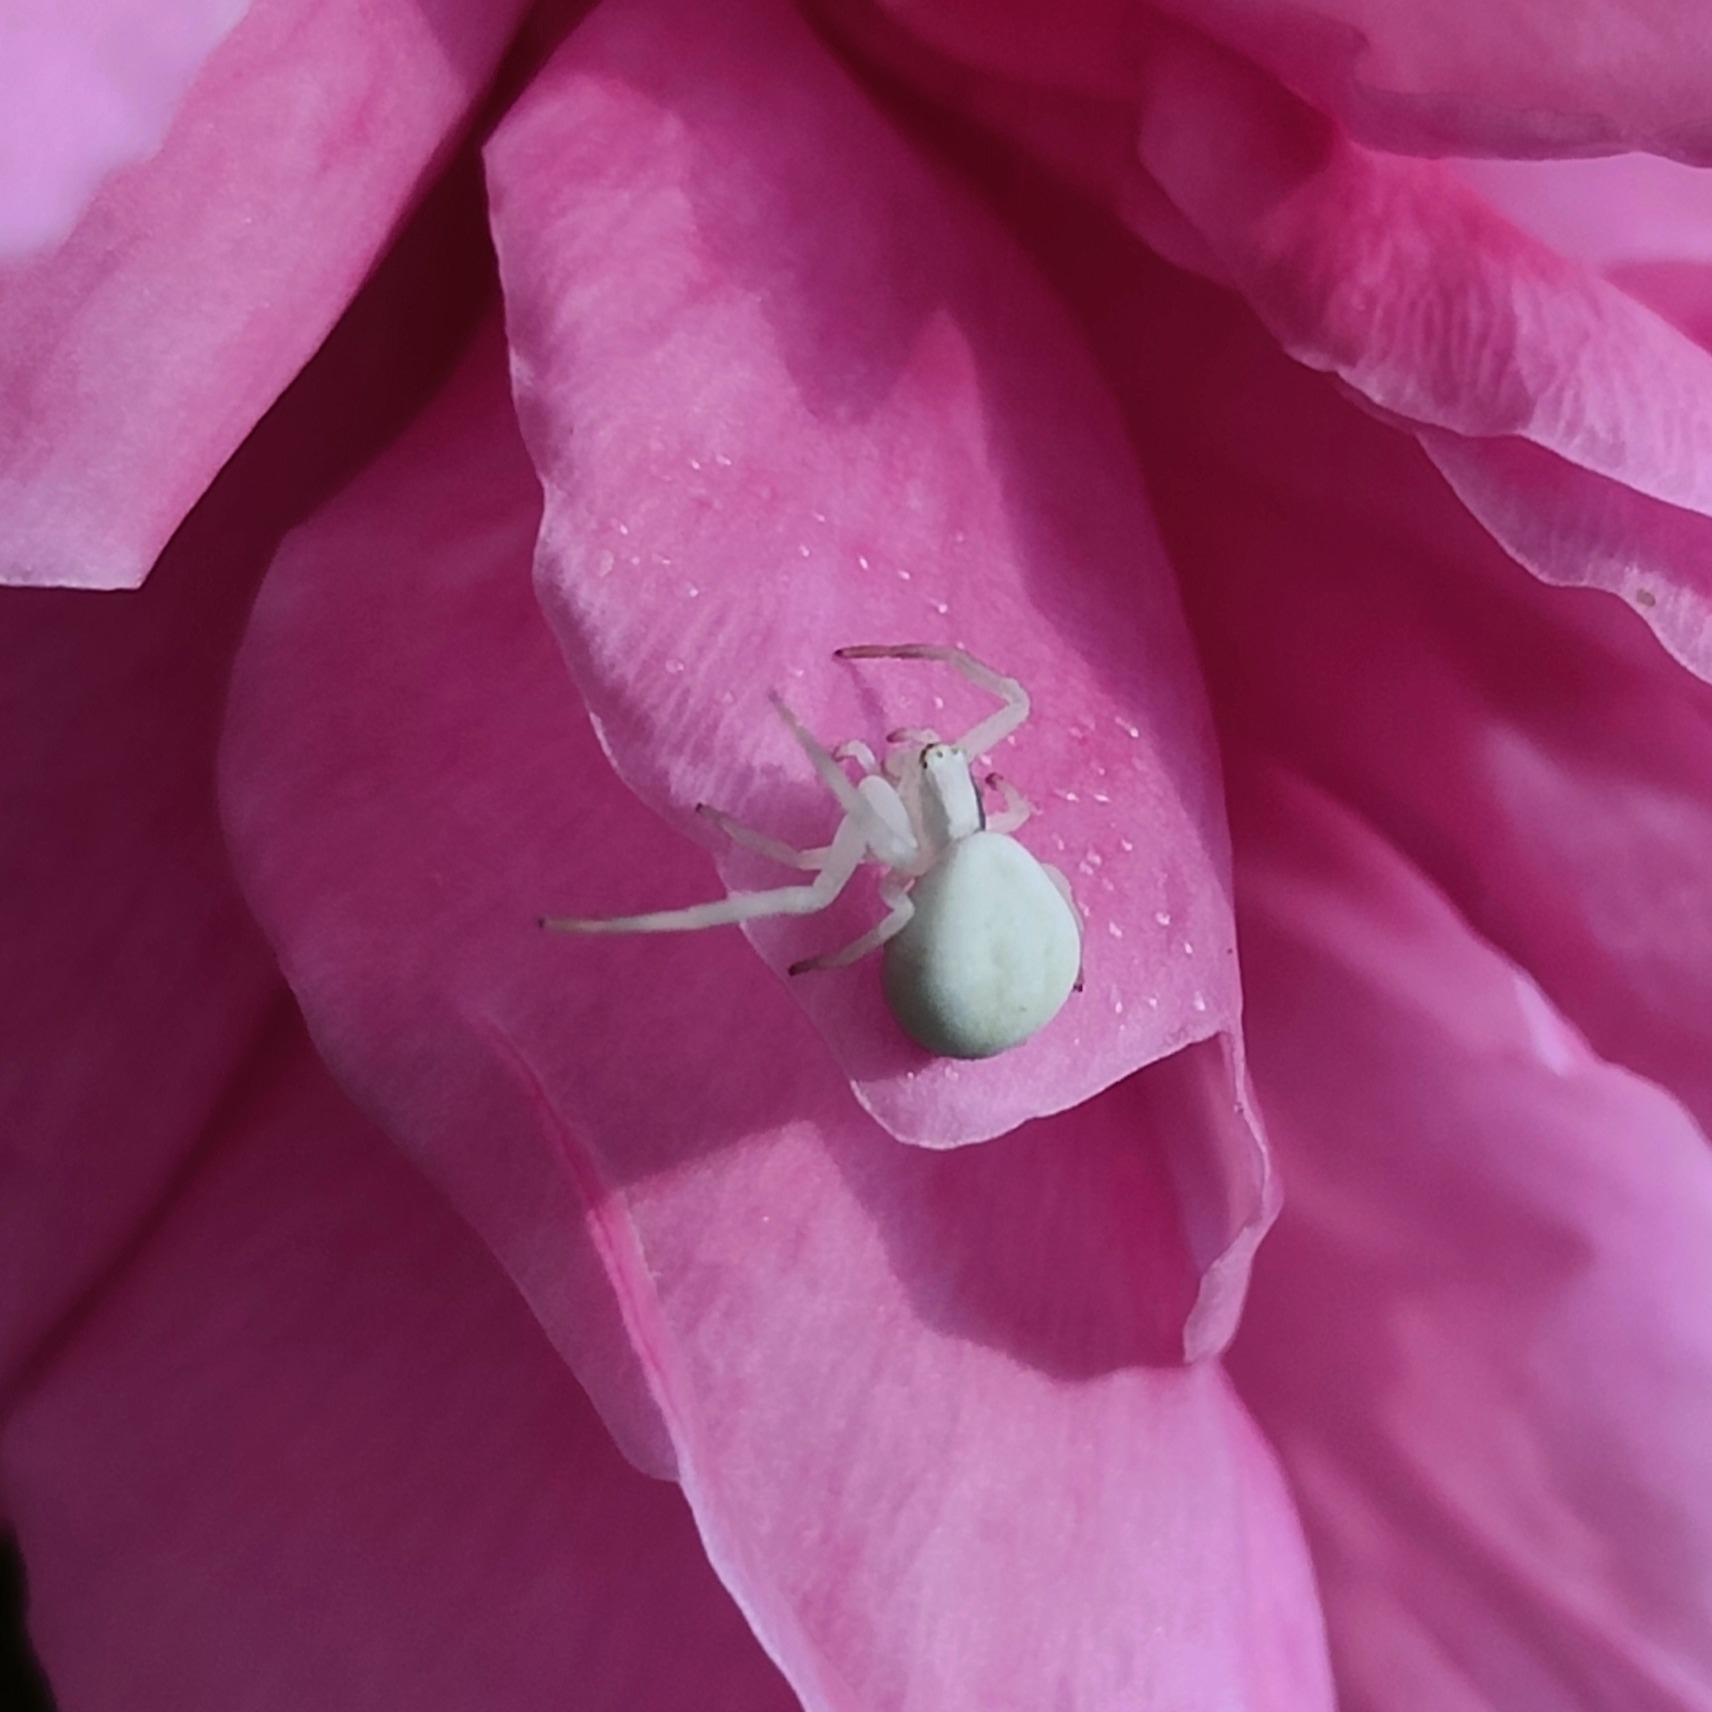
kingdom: Animalia
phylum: Arthropoda
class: Arachnida
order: Araneae
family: Thomisidae
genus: Misumena
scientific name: Misumena vatia
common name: Goldenrod crab spider
